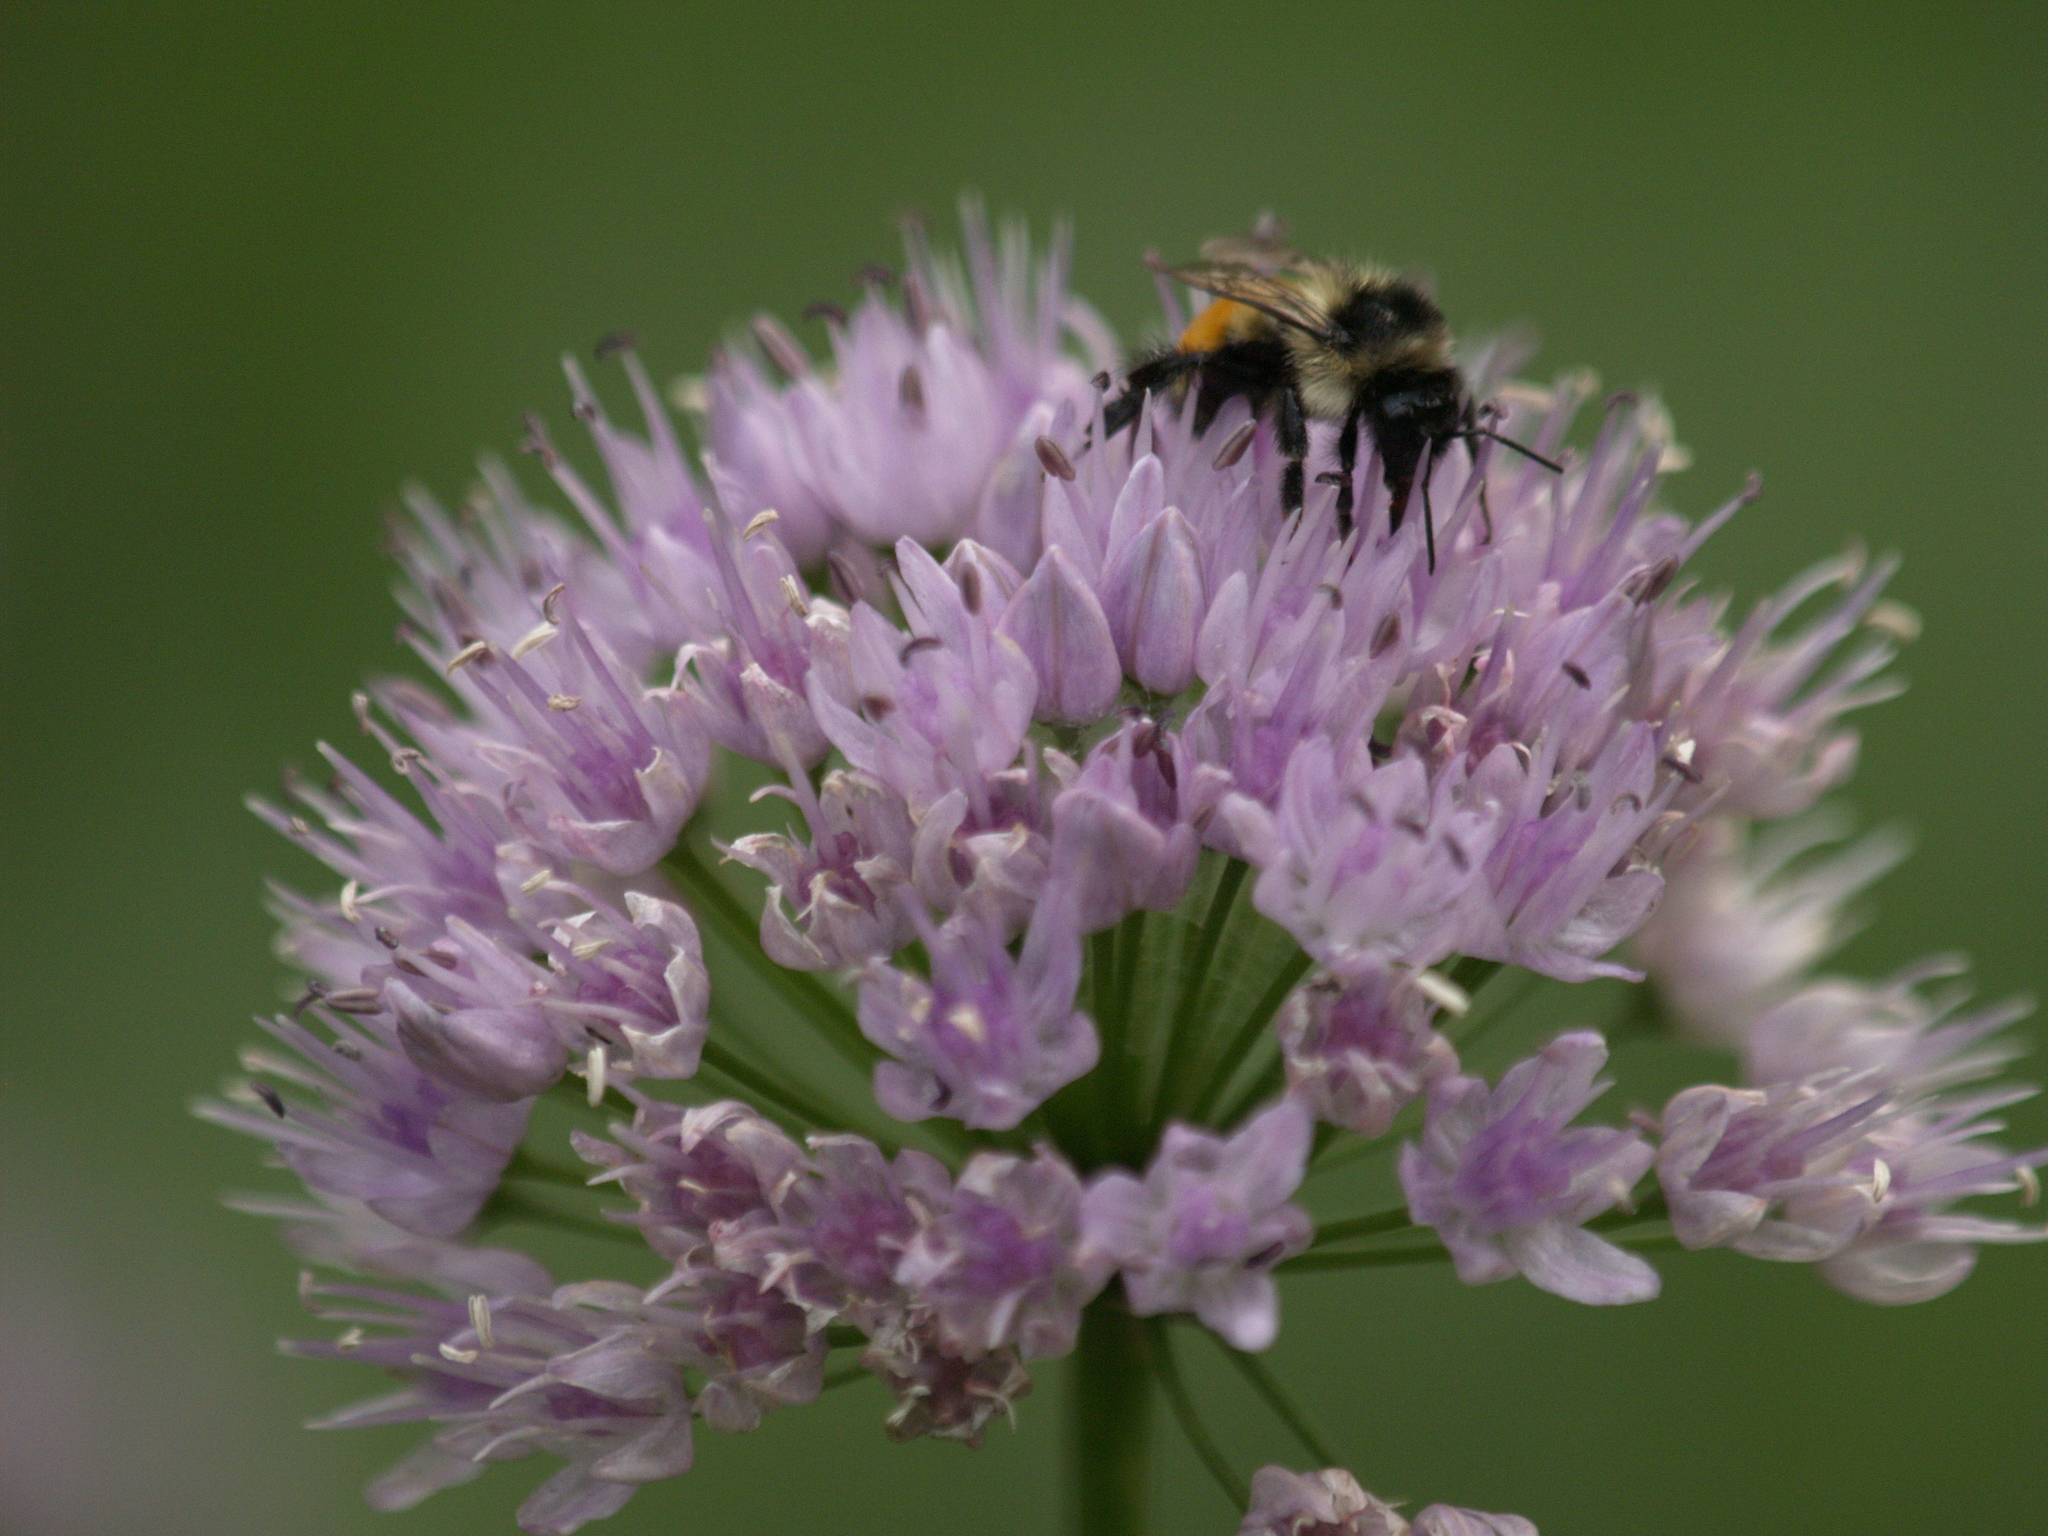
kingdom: Animalia
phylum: Arthropoda
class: Insecta
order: Hymenoptera
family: Apidae
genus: Bombus
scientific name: Bombus ternarius
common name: Tri-colored bumble bee
